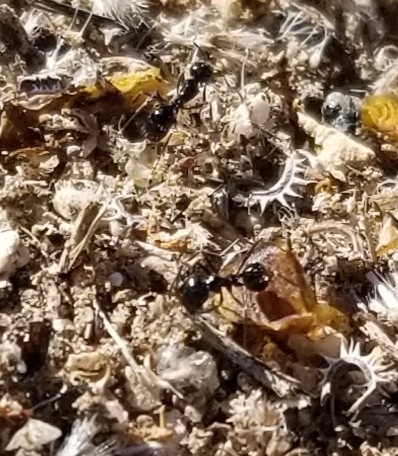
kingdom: Animalia
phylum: Arthropoda
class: Insecta
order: Hymenoptera
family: Formicidae
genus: Messor
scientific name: Messor pergandei
